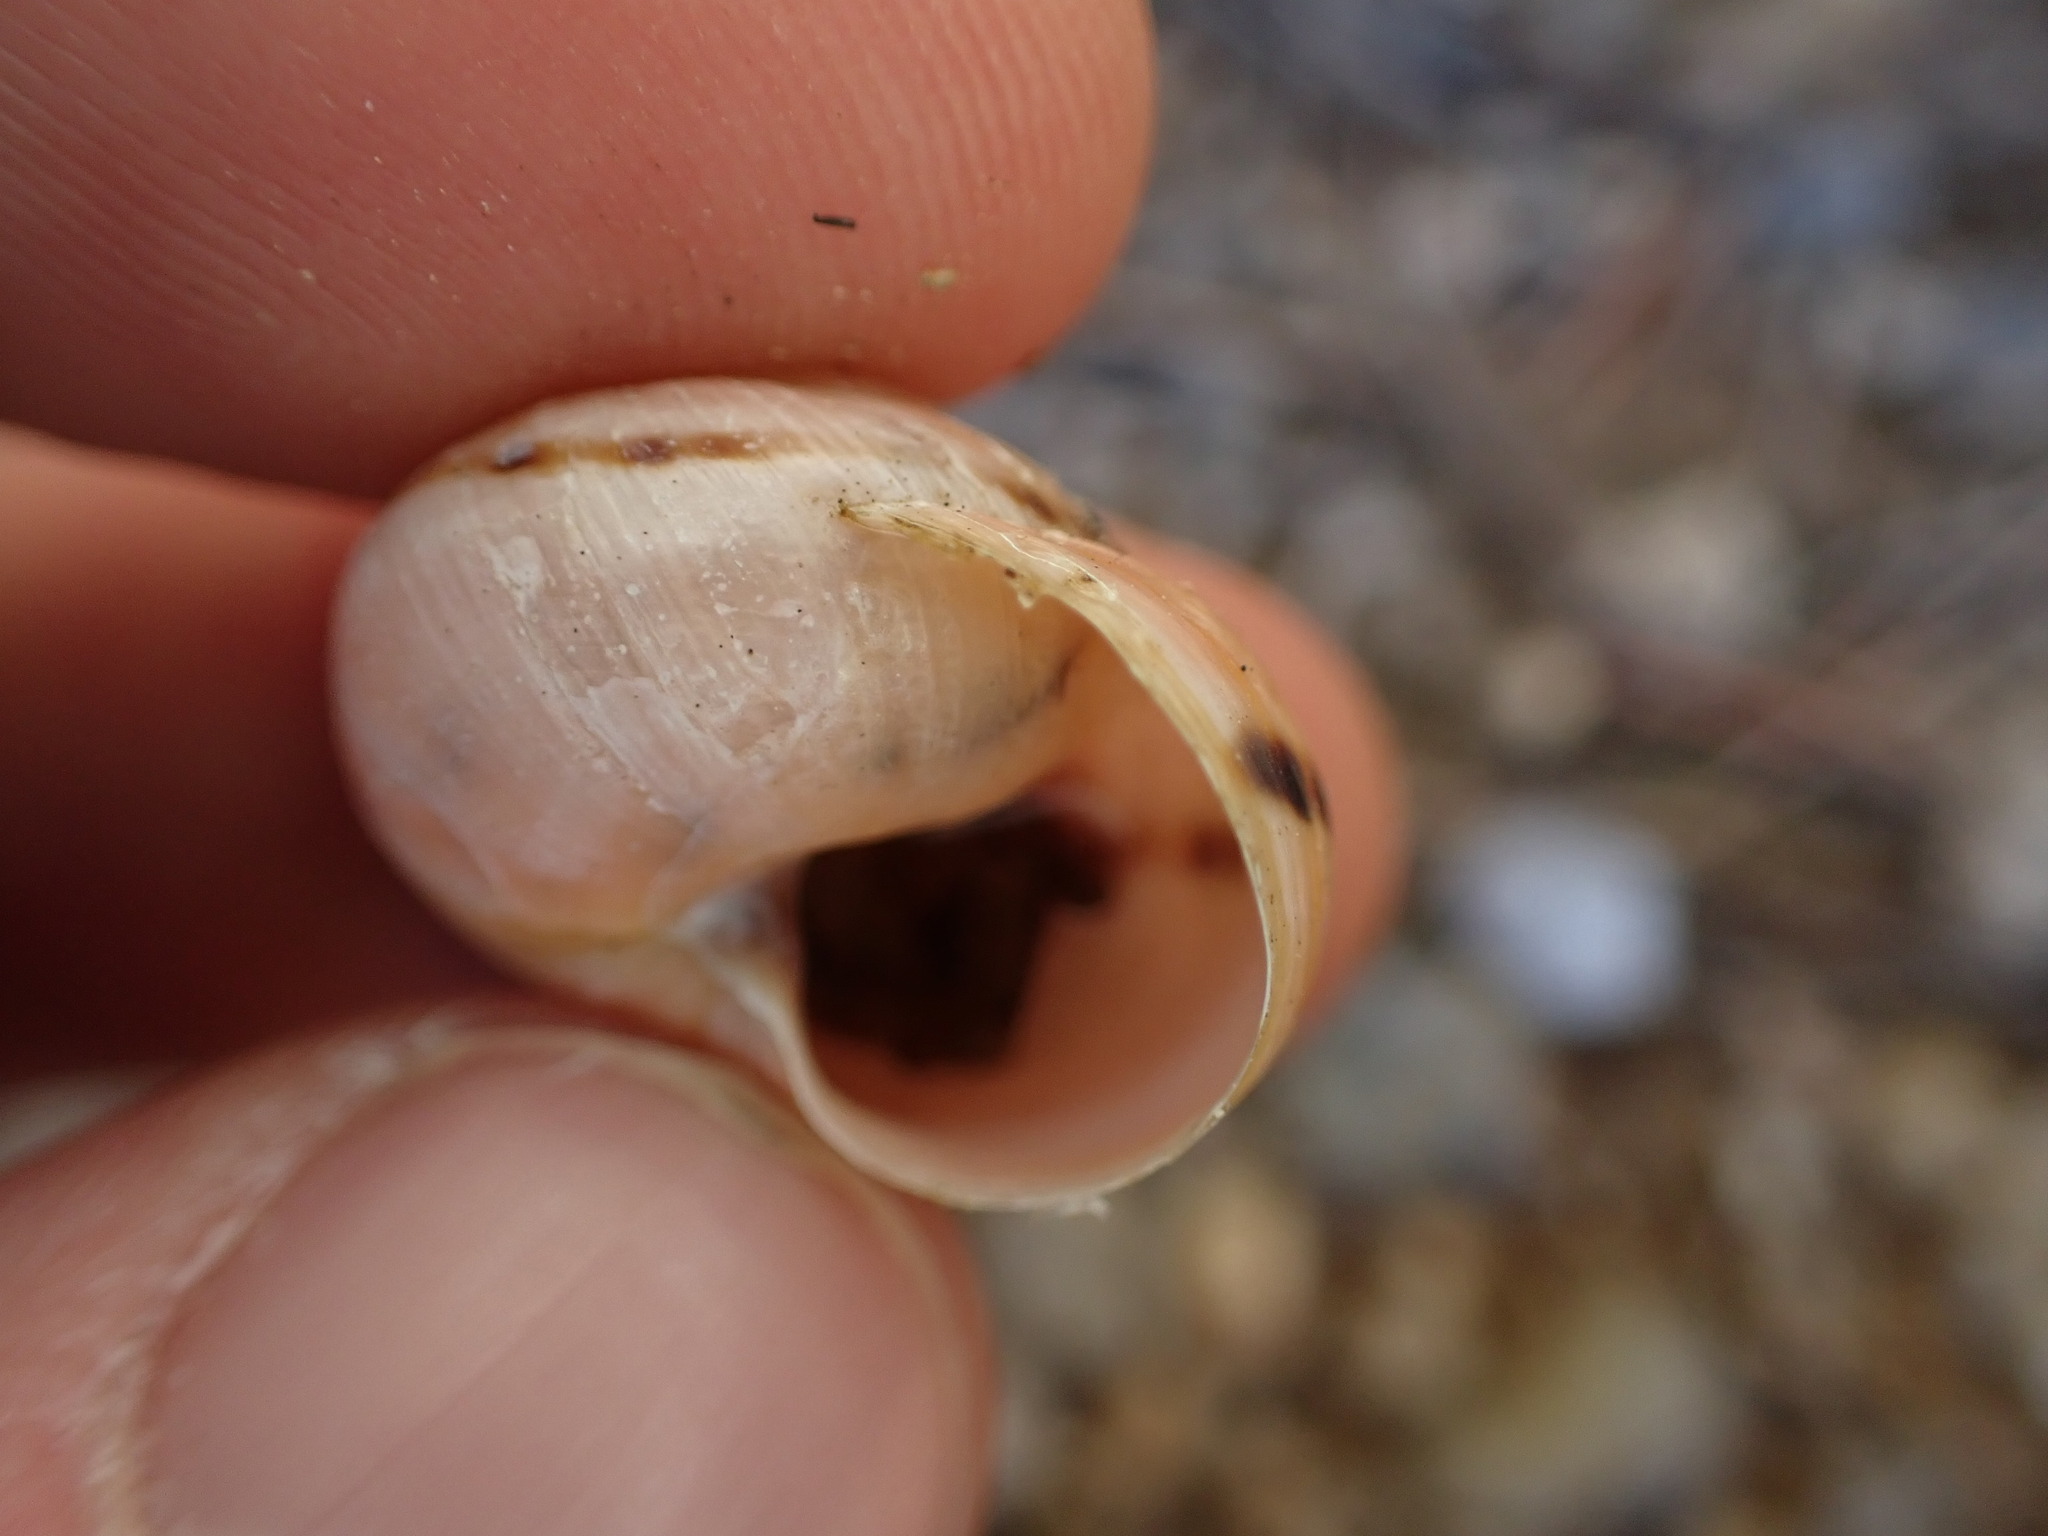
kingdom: Animalia
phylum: Mollusca
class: Gastropoda
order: Stylommatophora
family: Helicidae
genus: Cepaea
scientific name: Cepaea nemoralis
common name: Grovesnail
